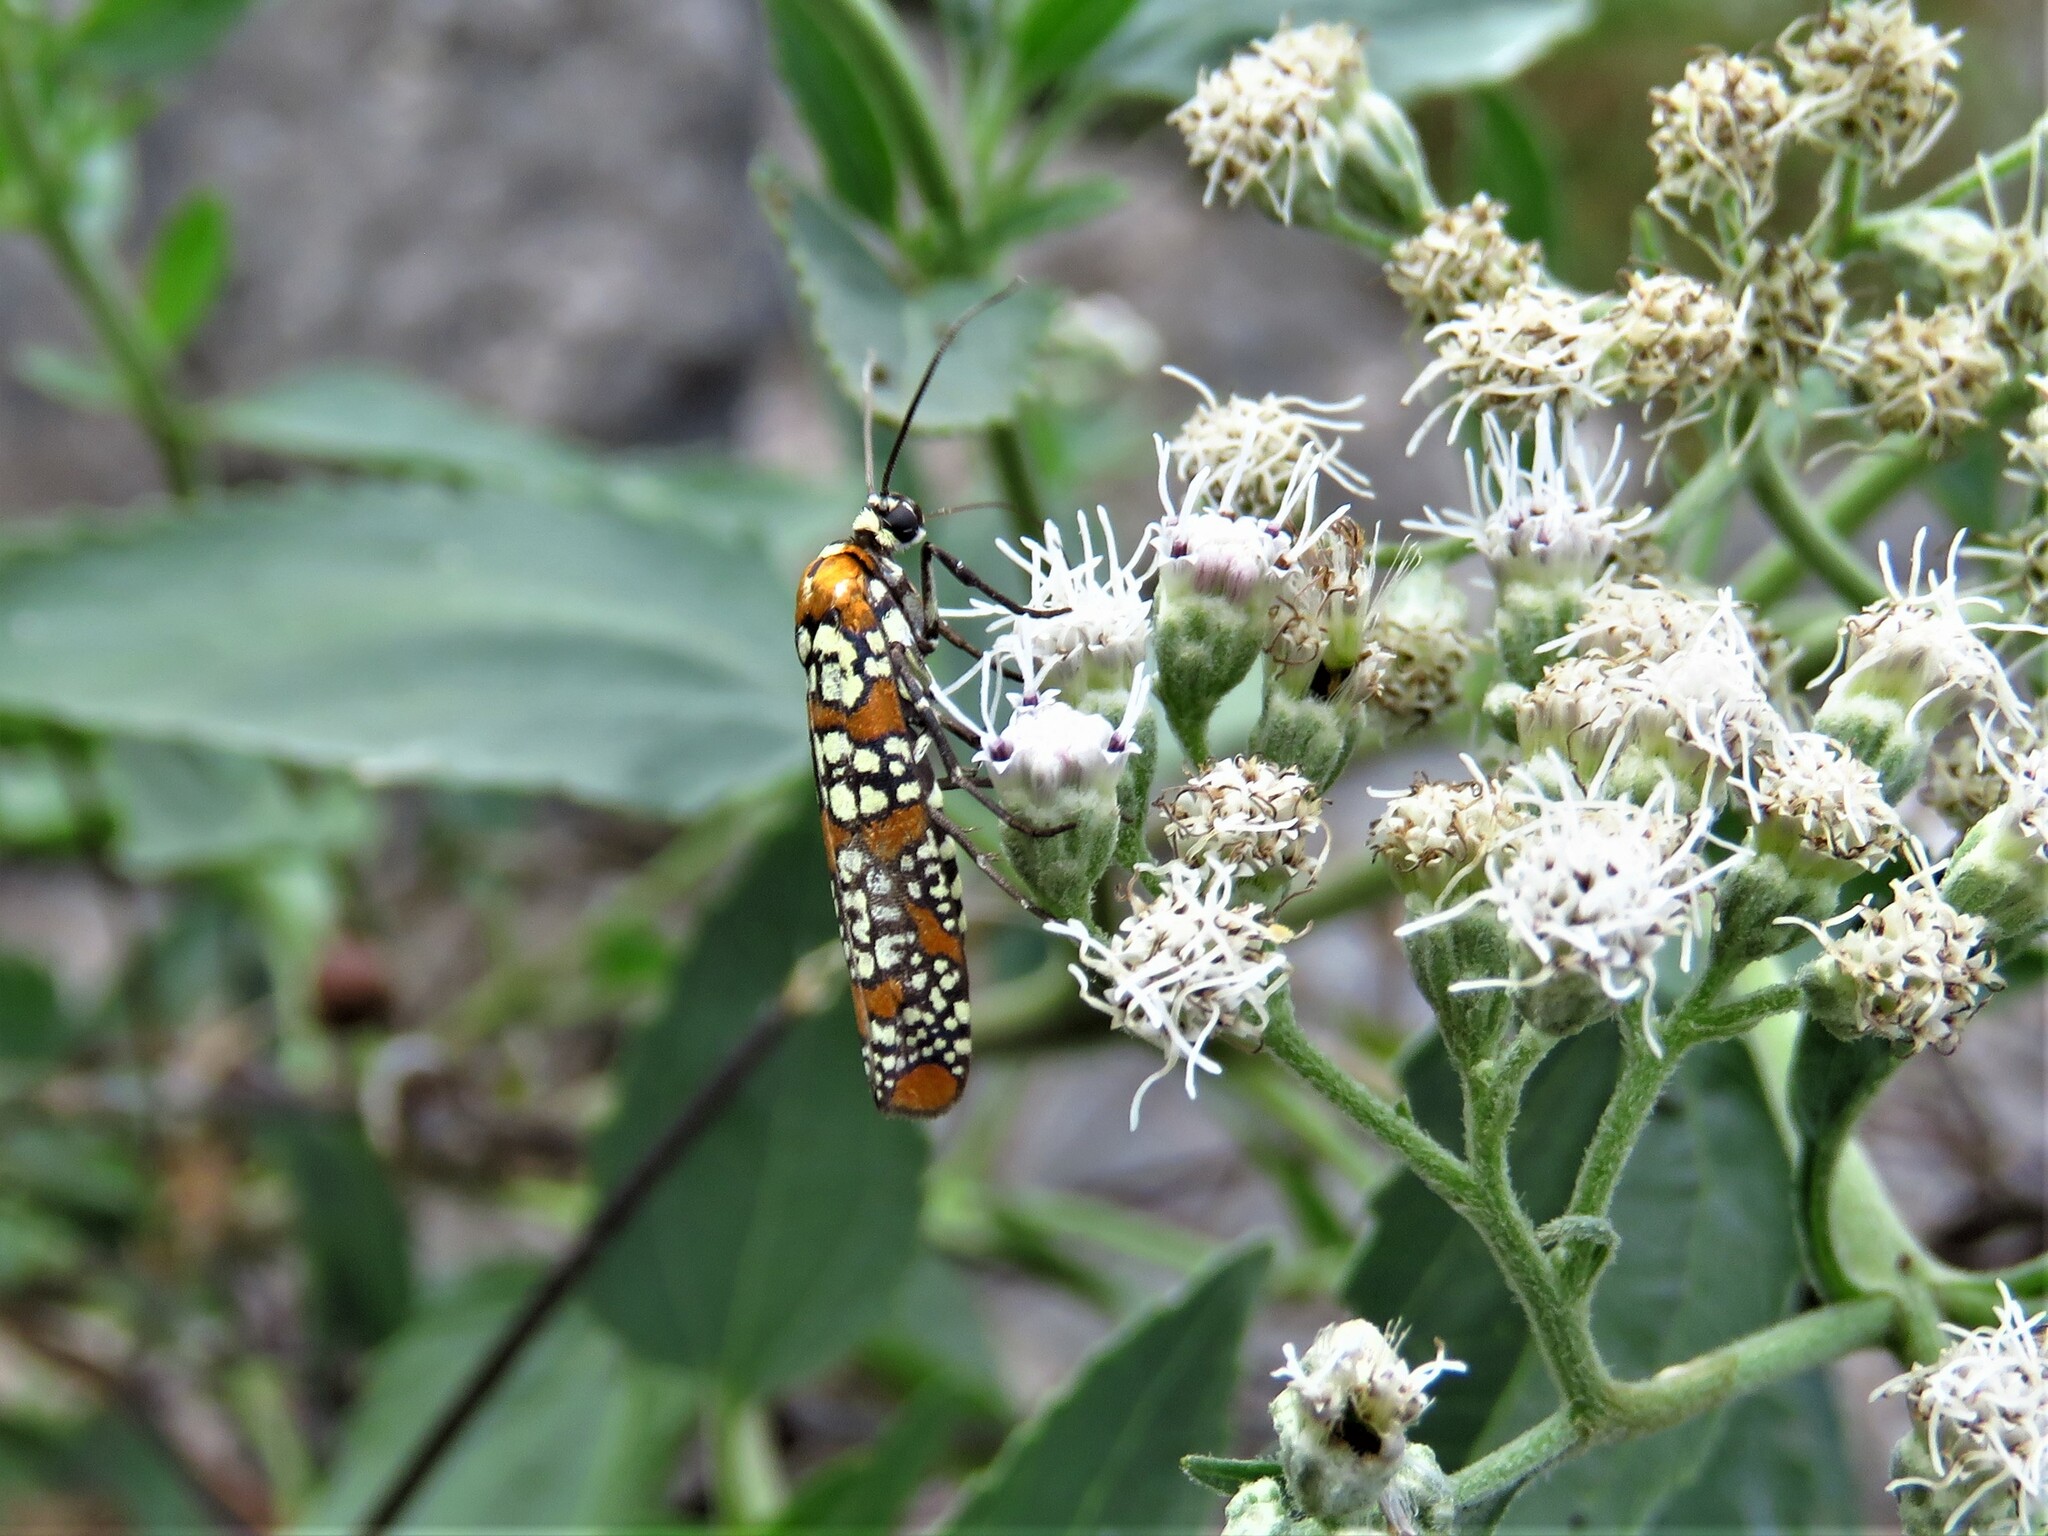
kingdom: Animalia
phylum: Arthropoda
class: Insecta
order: Lepidoptera
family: Attevidae
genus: Atteva
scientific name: Atteva punctella
